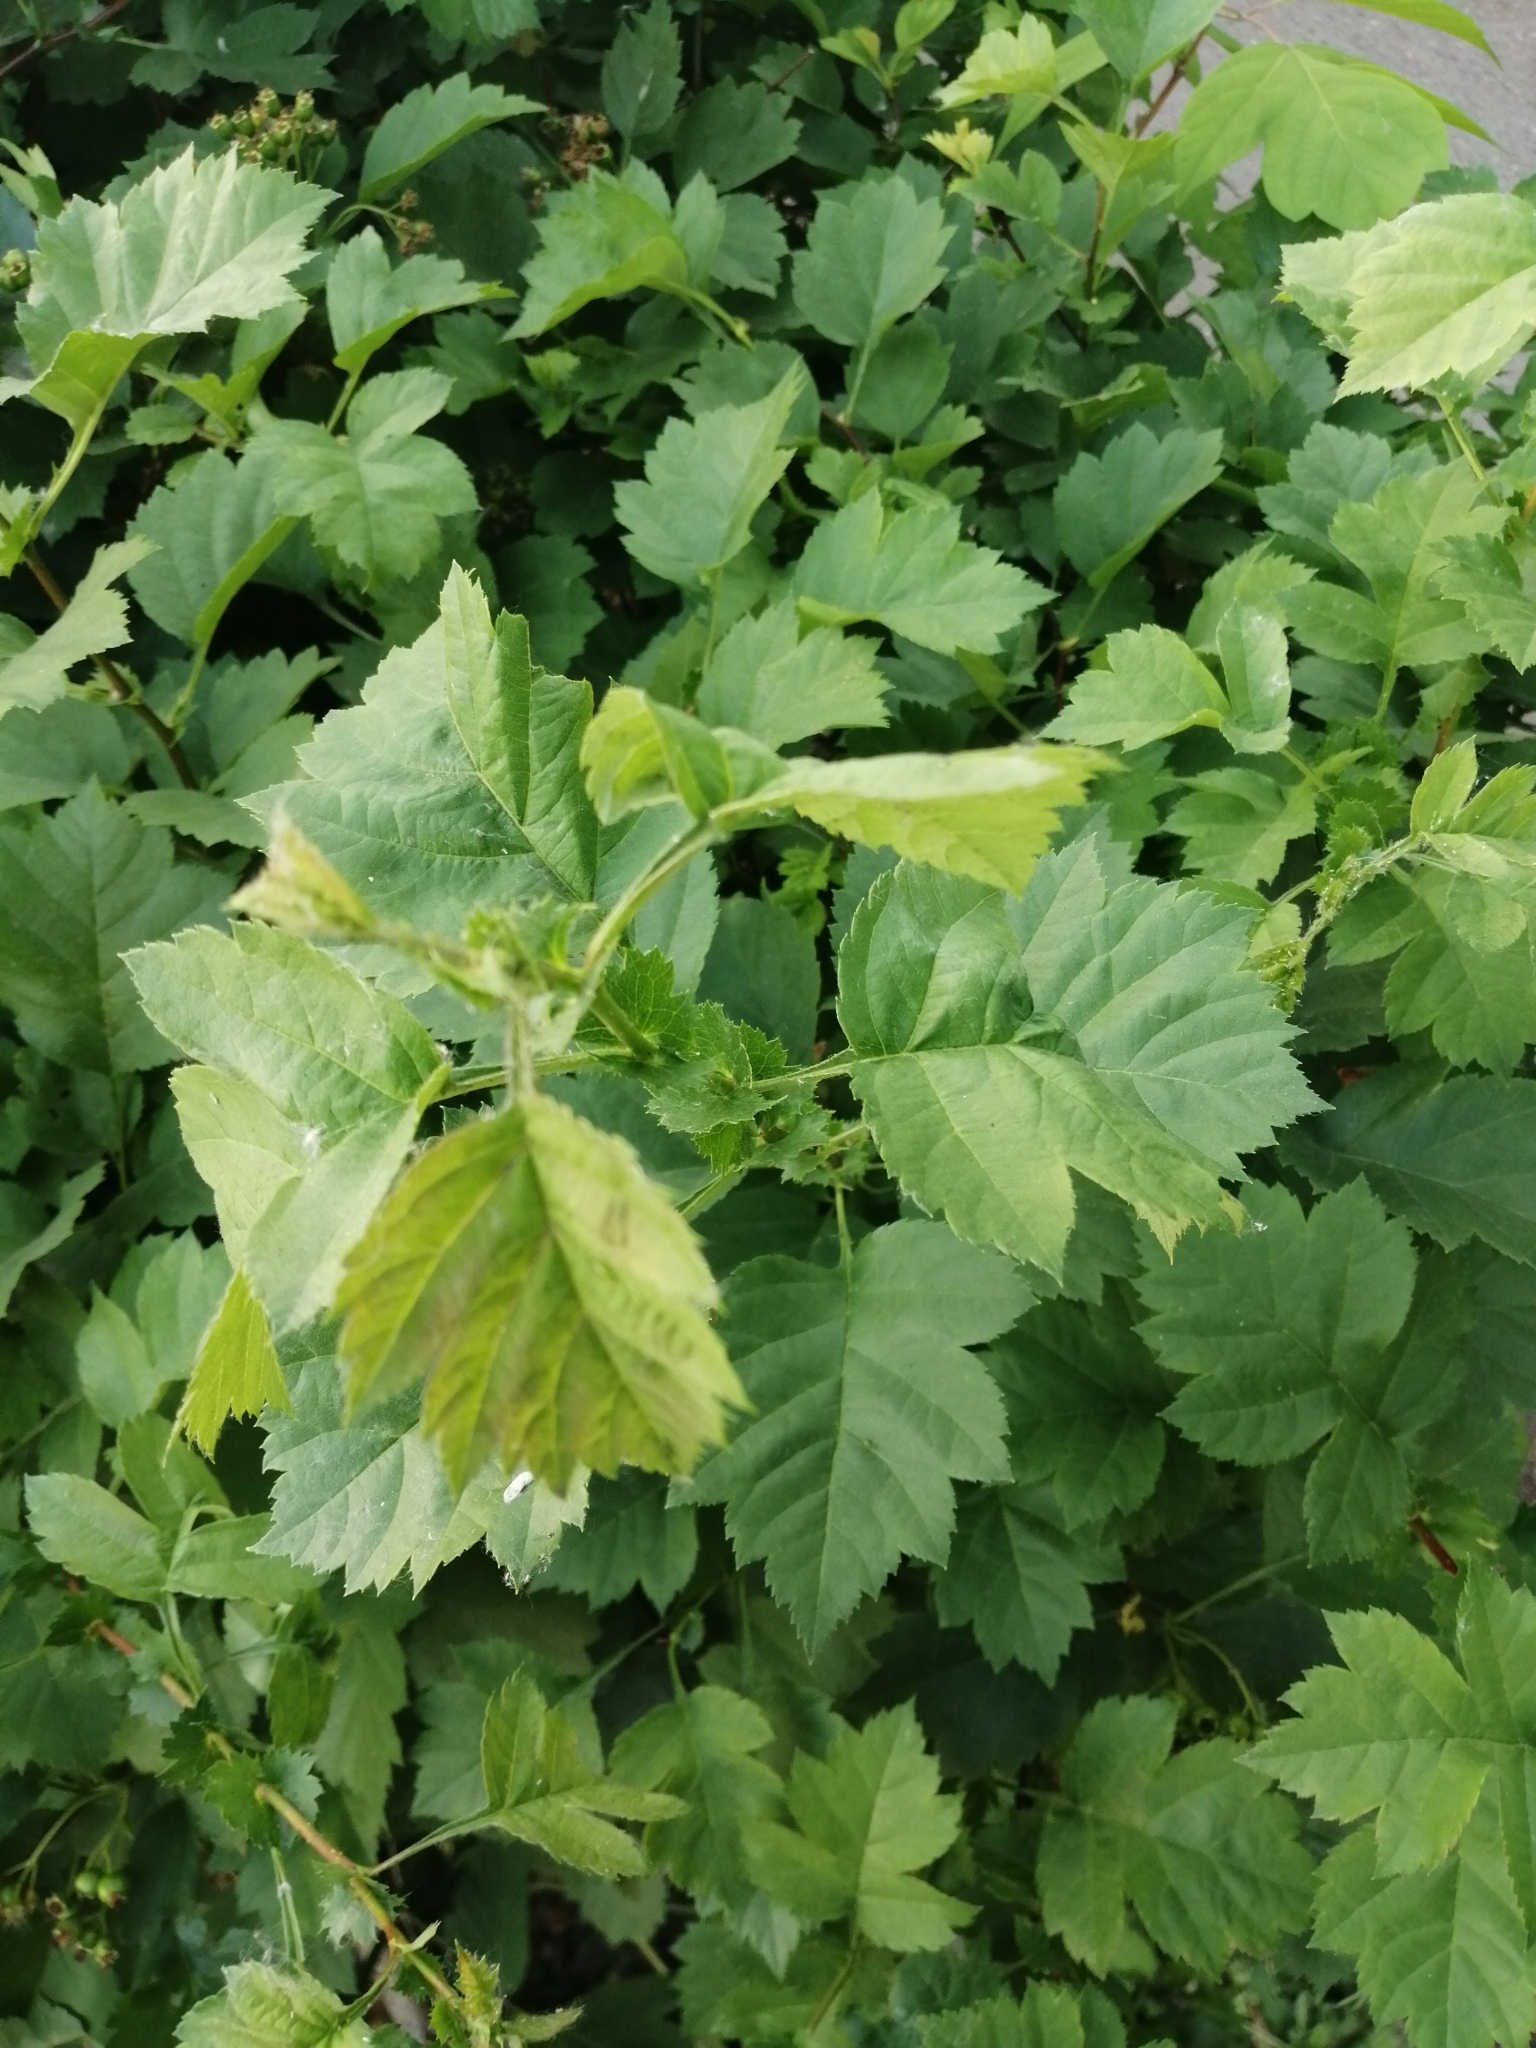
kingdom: Plantae
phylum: Tracheophyta
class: Magnoliopsida
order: Rosales
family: Rosaceae
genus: Crataegus
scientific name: Crataegus sanguinea
